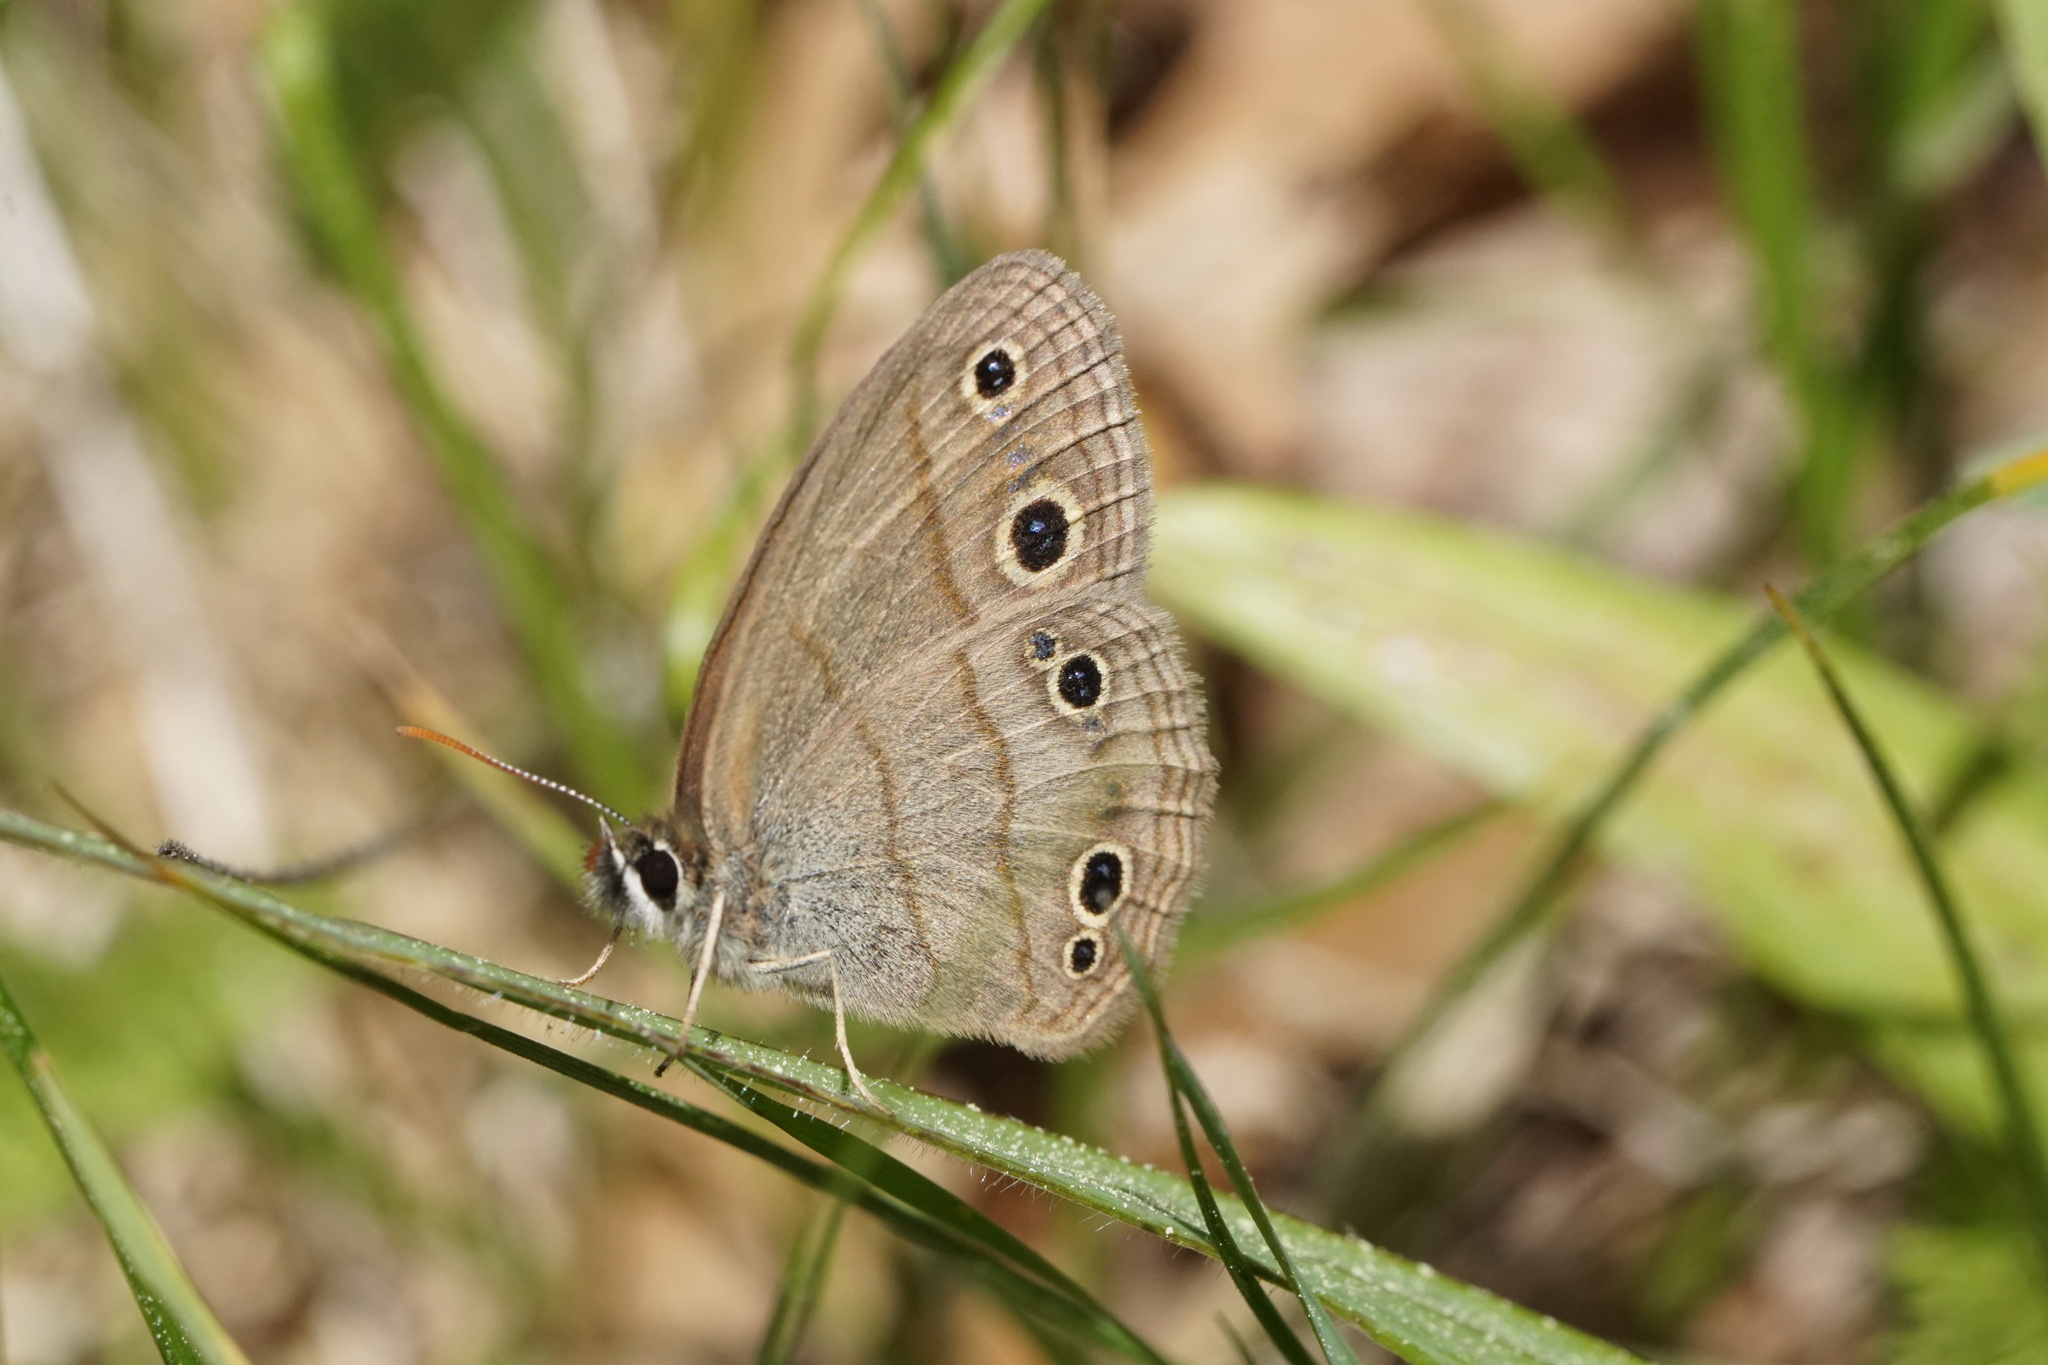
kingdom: Animalia
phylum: Arthropoda
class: Insecta
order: Lepidoptera
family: Nymphalidae
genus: Euptychia
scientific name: Euptychia cymela
